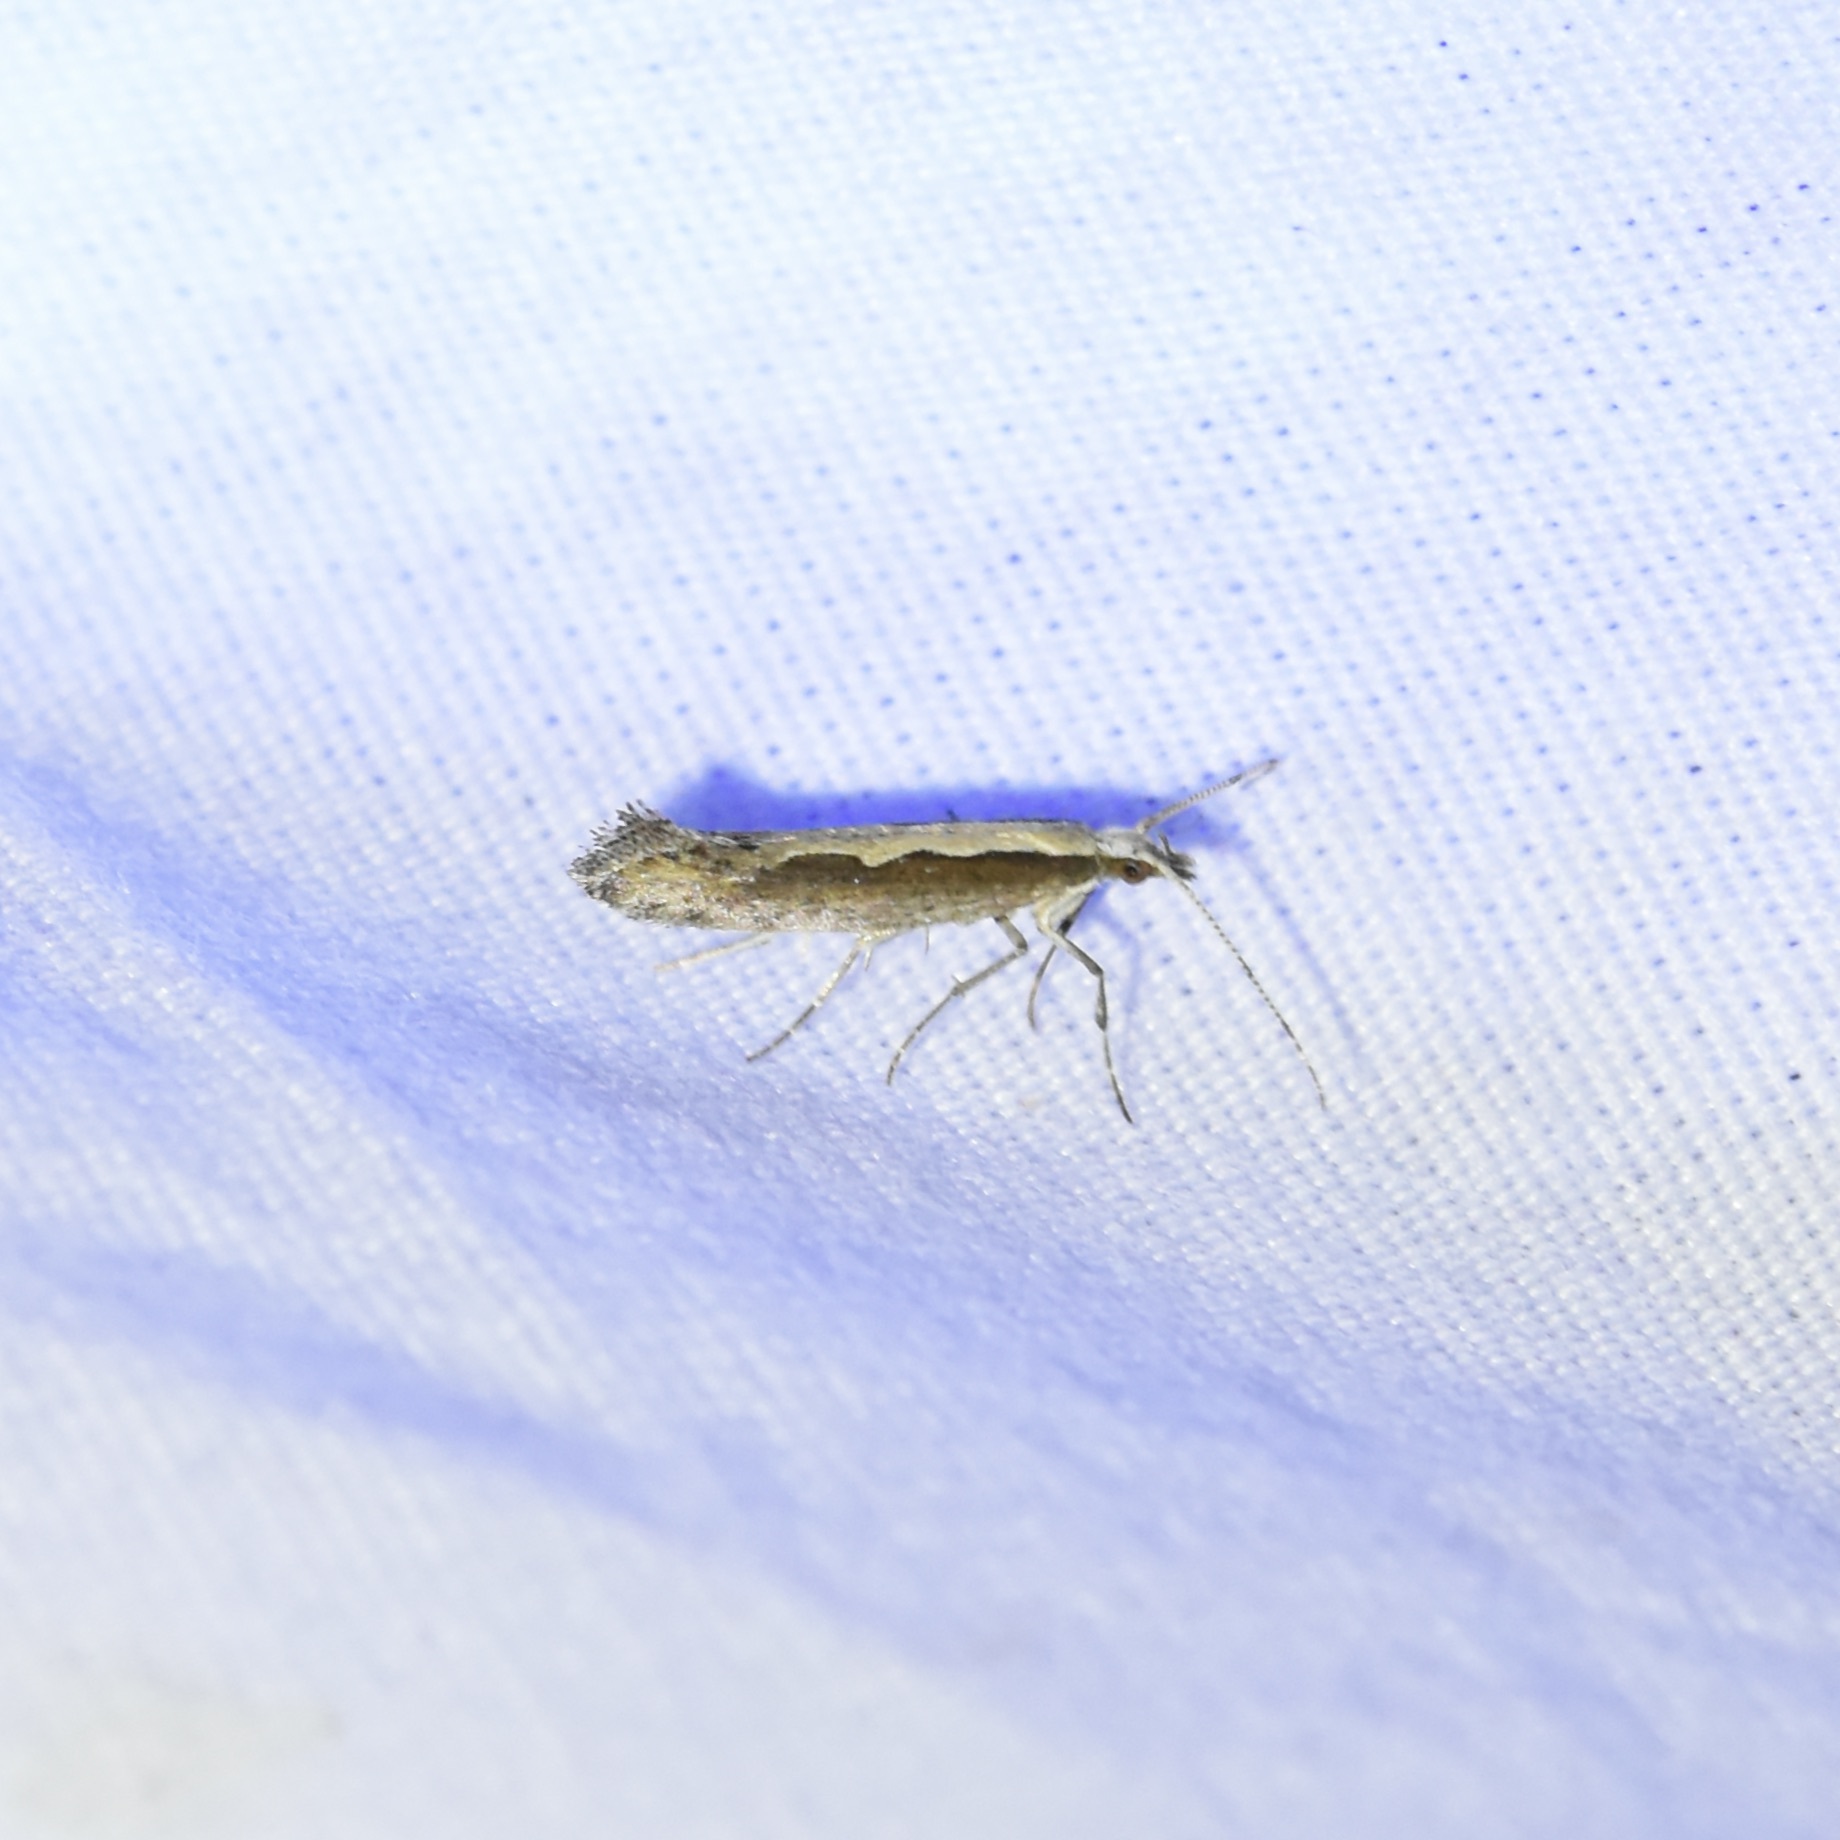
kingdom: Animalia
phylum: Arthropoda
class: Insecta
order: Lepidoptera
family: Plutellidae
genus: Plutella
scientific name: Plutella xylostella
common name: Diamond-back moth
